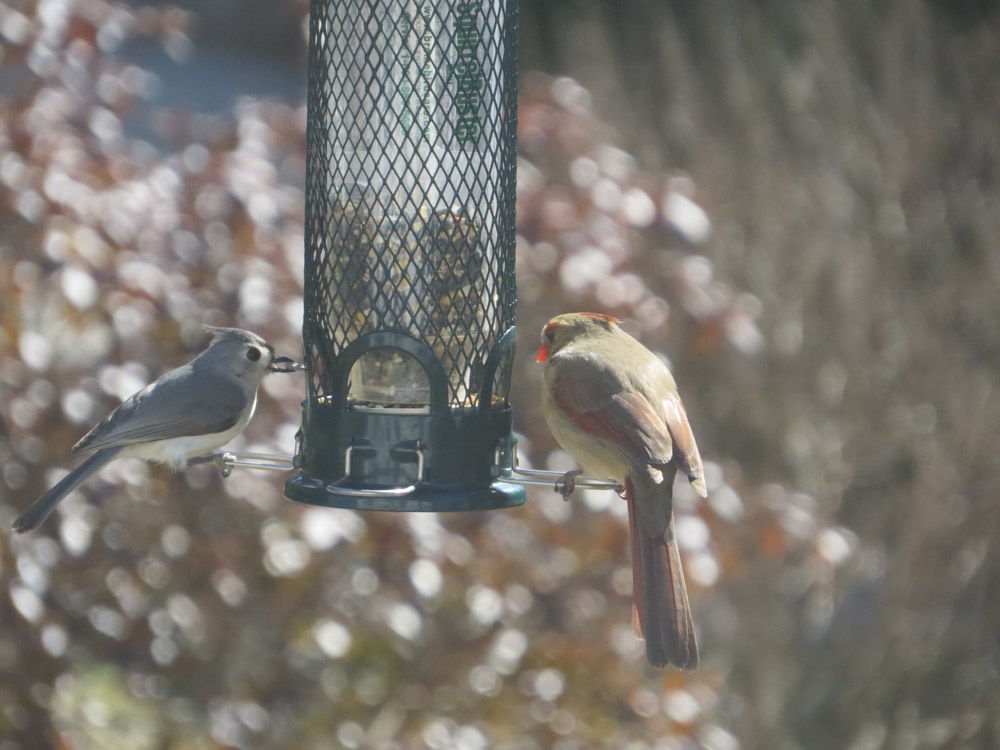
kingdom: Animalia
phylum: Chordata
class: Aves
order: Passeriformes
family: Paridae
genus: Baeolophus
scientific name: Baeolophus bicolor
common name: Tufted titmouse
